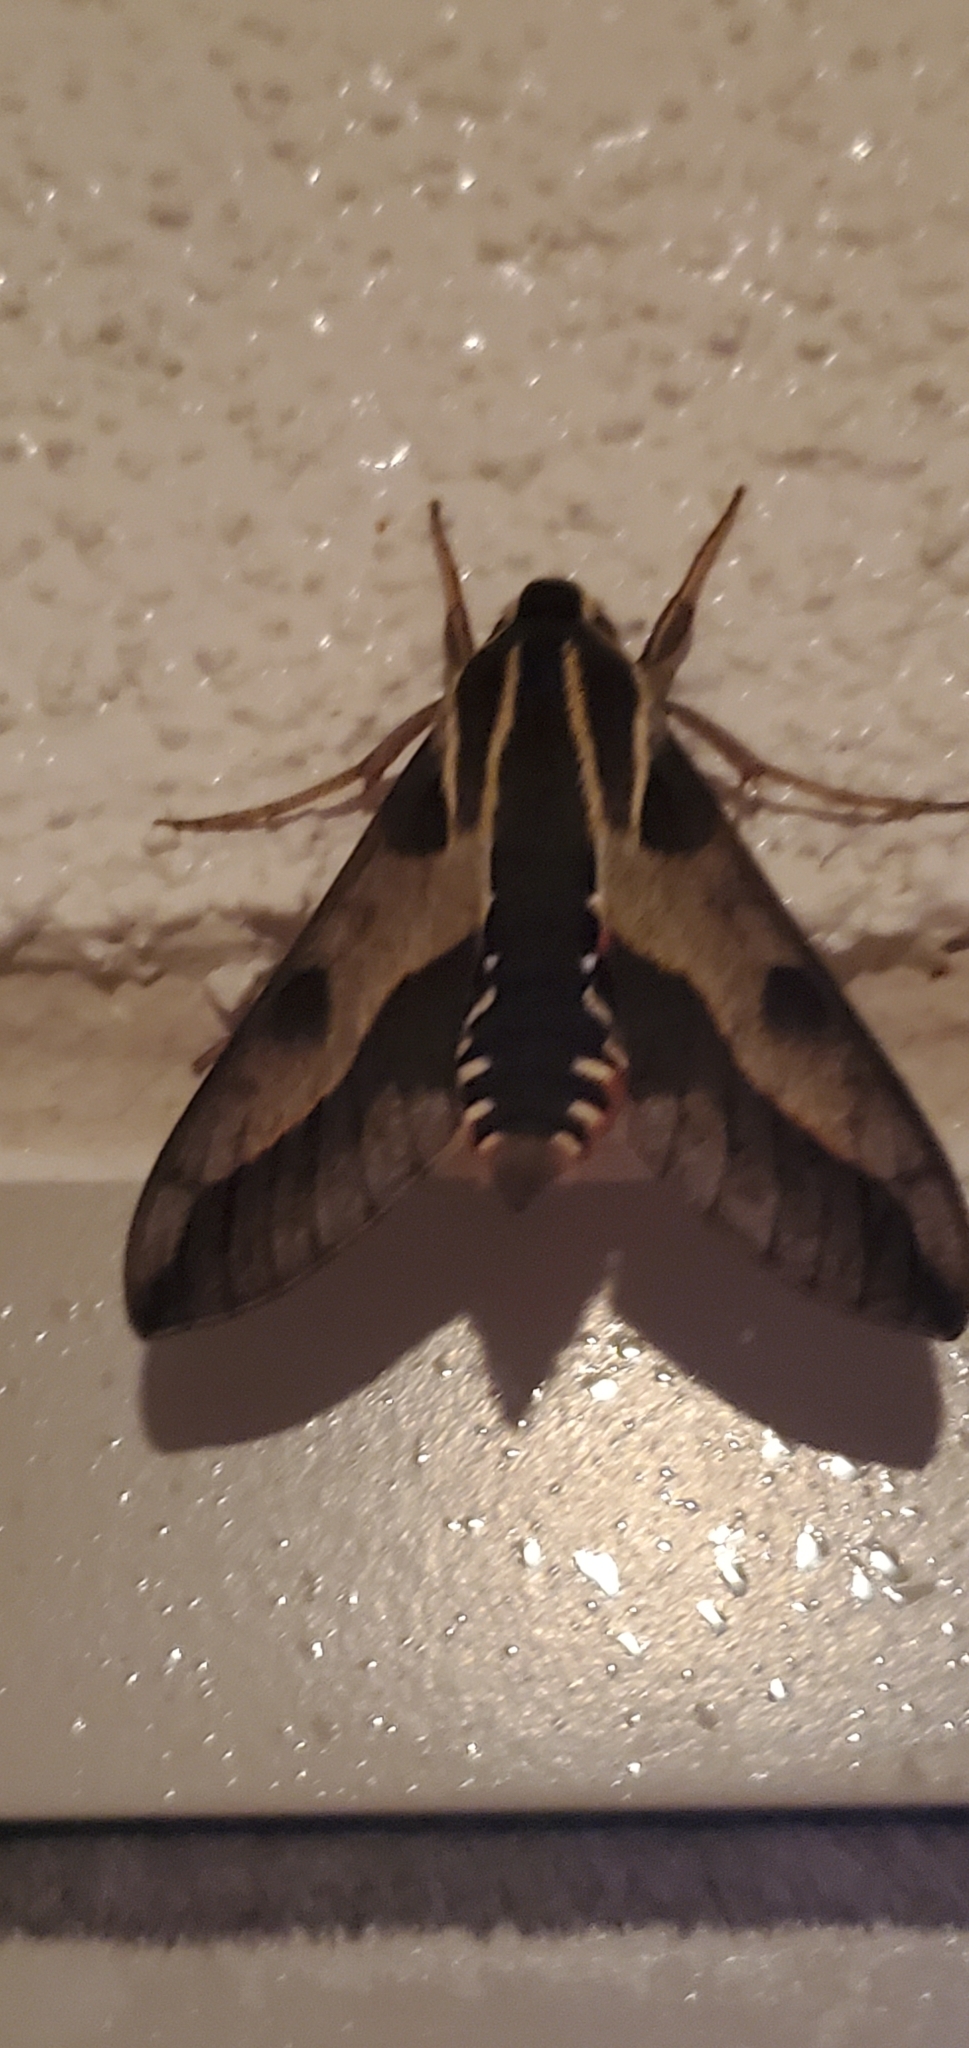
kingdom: Animalia
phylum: Arthropoda
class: Insecta
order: Lepidoptera
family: Sphingidae
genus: Hyles
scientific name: Hyles calida
